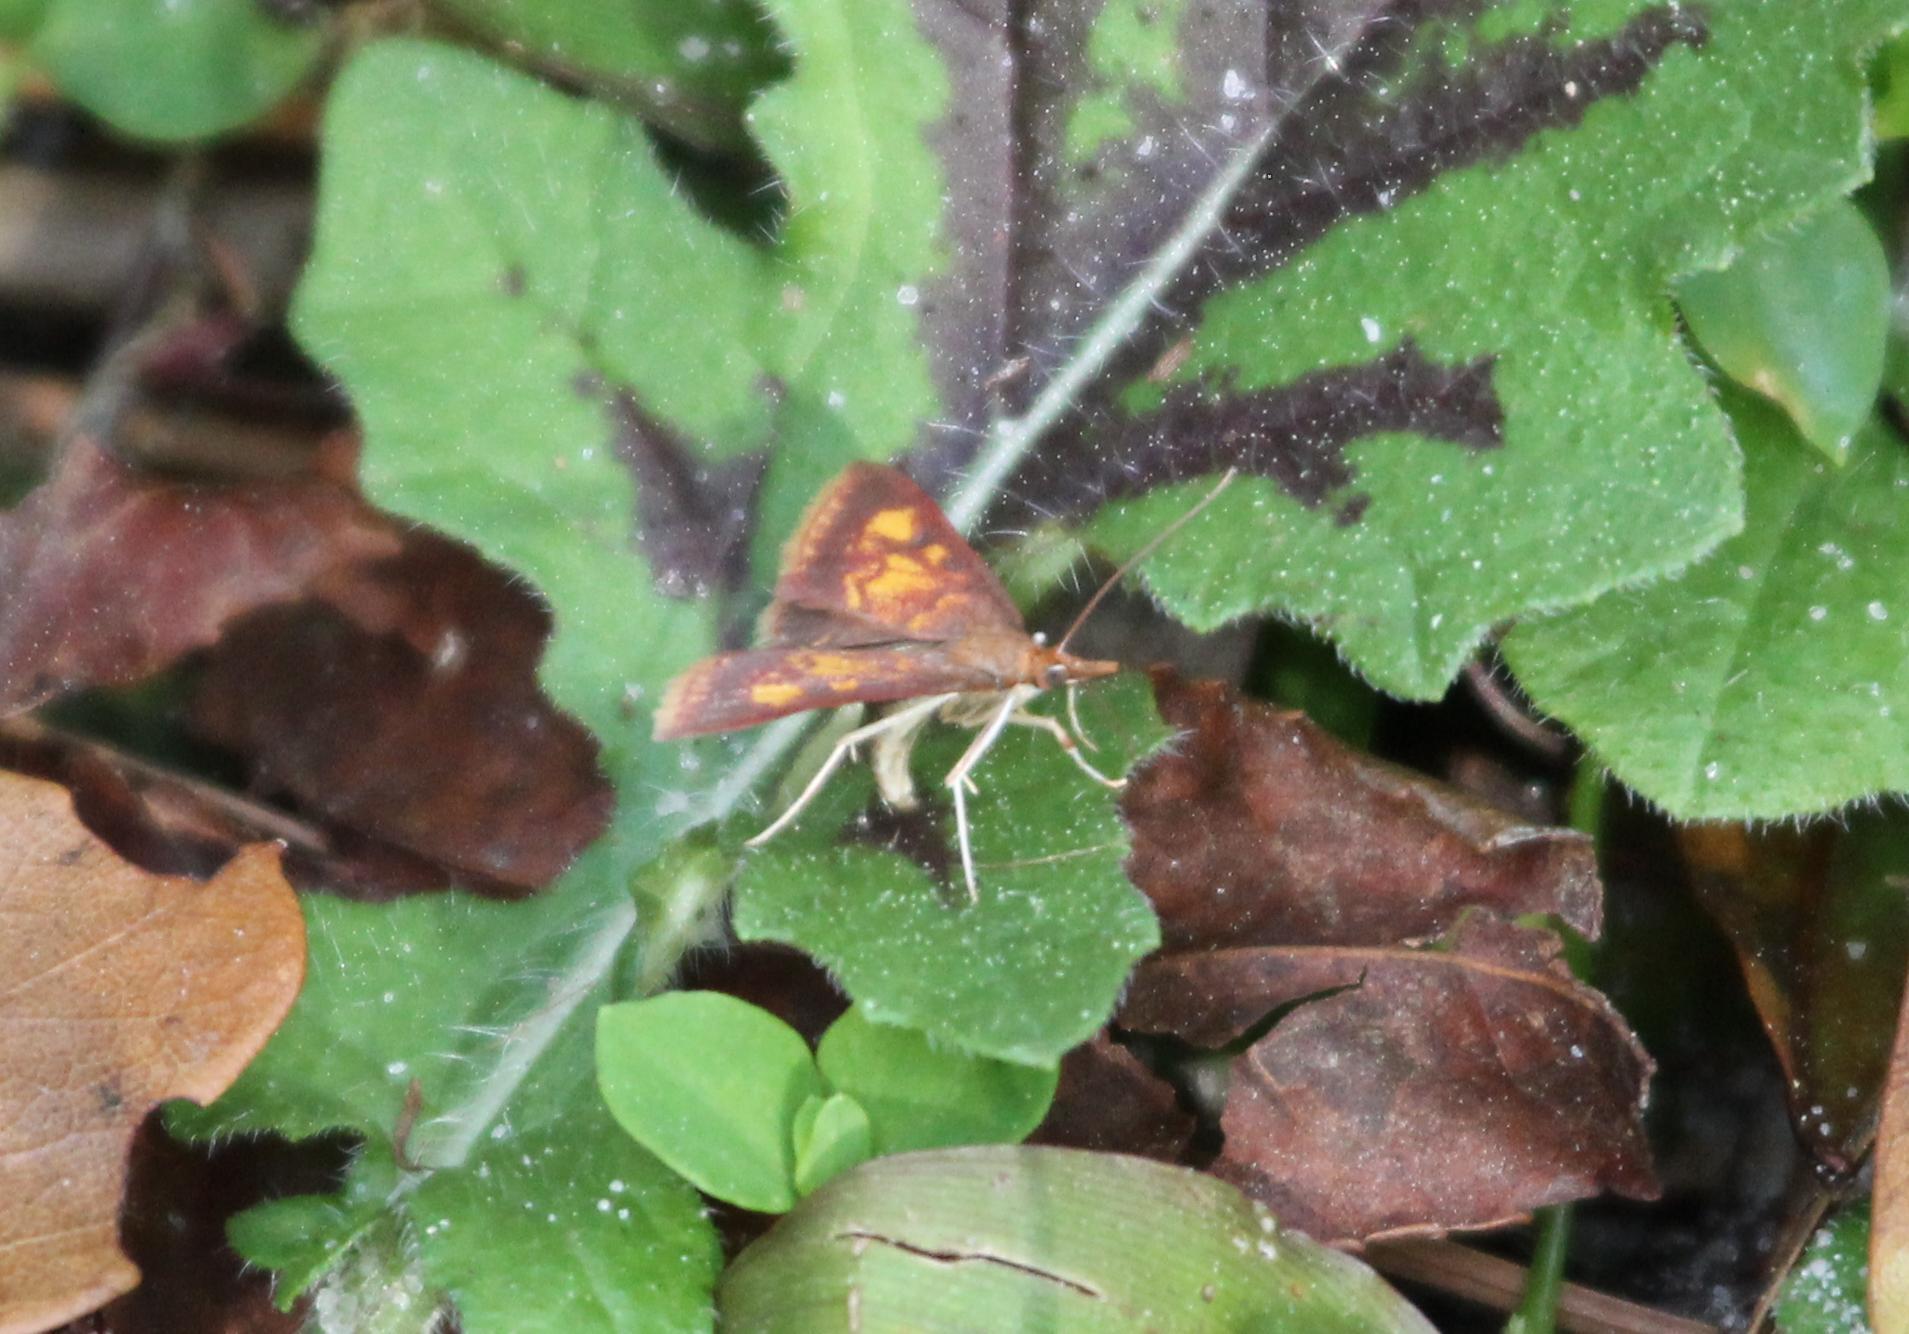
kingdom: Animalia
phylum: Arthropoda
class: Insecta
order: Lepidoptera
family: Crambidae
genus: Pyrausta
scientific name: Pyrausta acrionalis
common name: Mint-loving pyrausta moth
